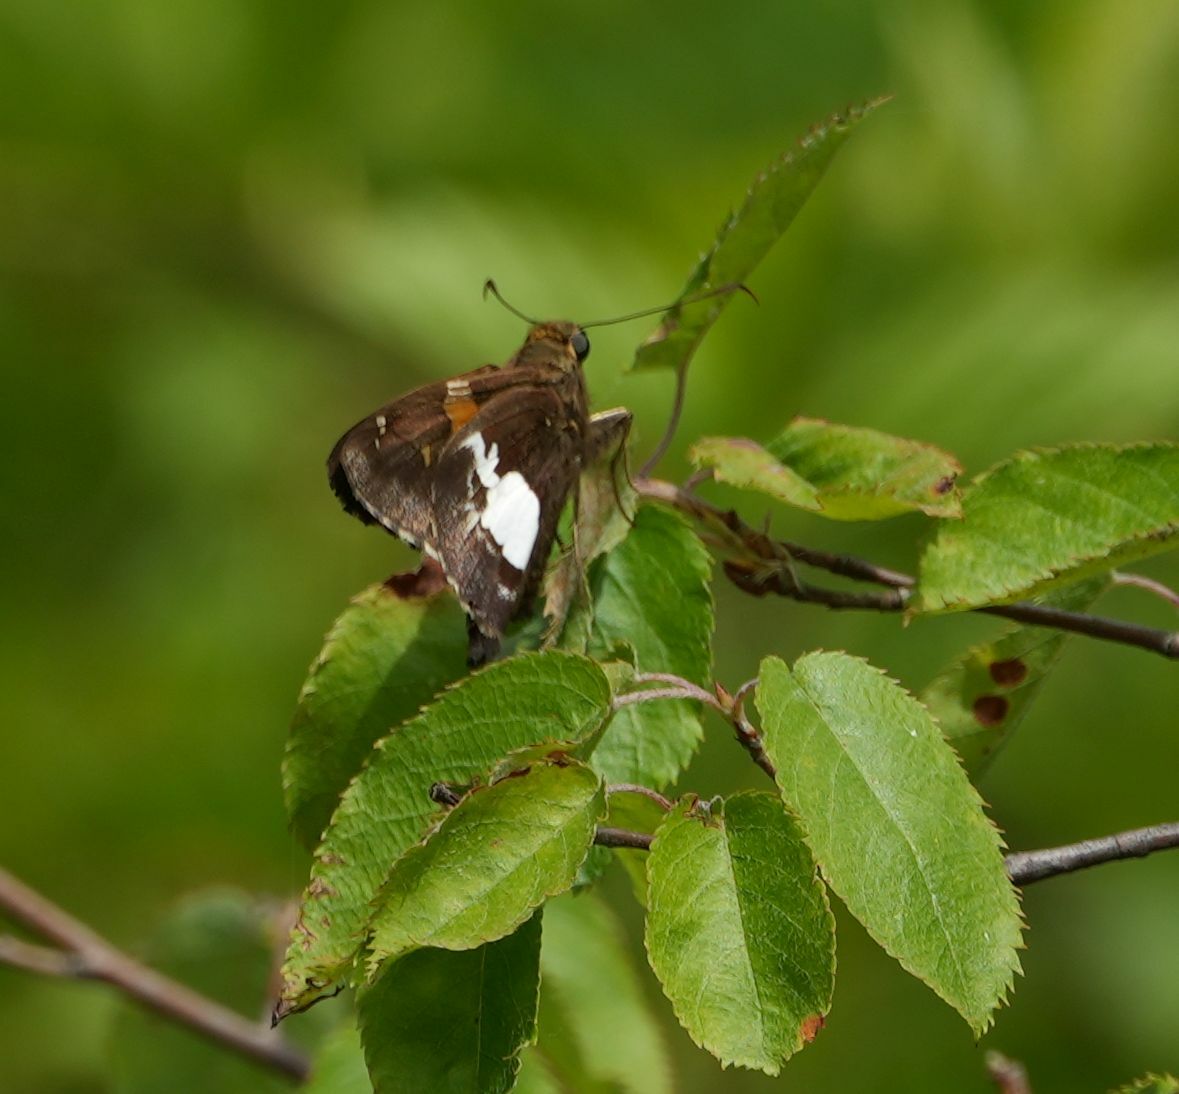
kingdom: Animalia
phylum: Arthropoda
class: Insecta
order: Lepidoptera
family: Hesperiidae
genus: Epargyreus
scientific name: Epargyreus clarus
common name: Silver-spotted skipper
